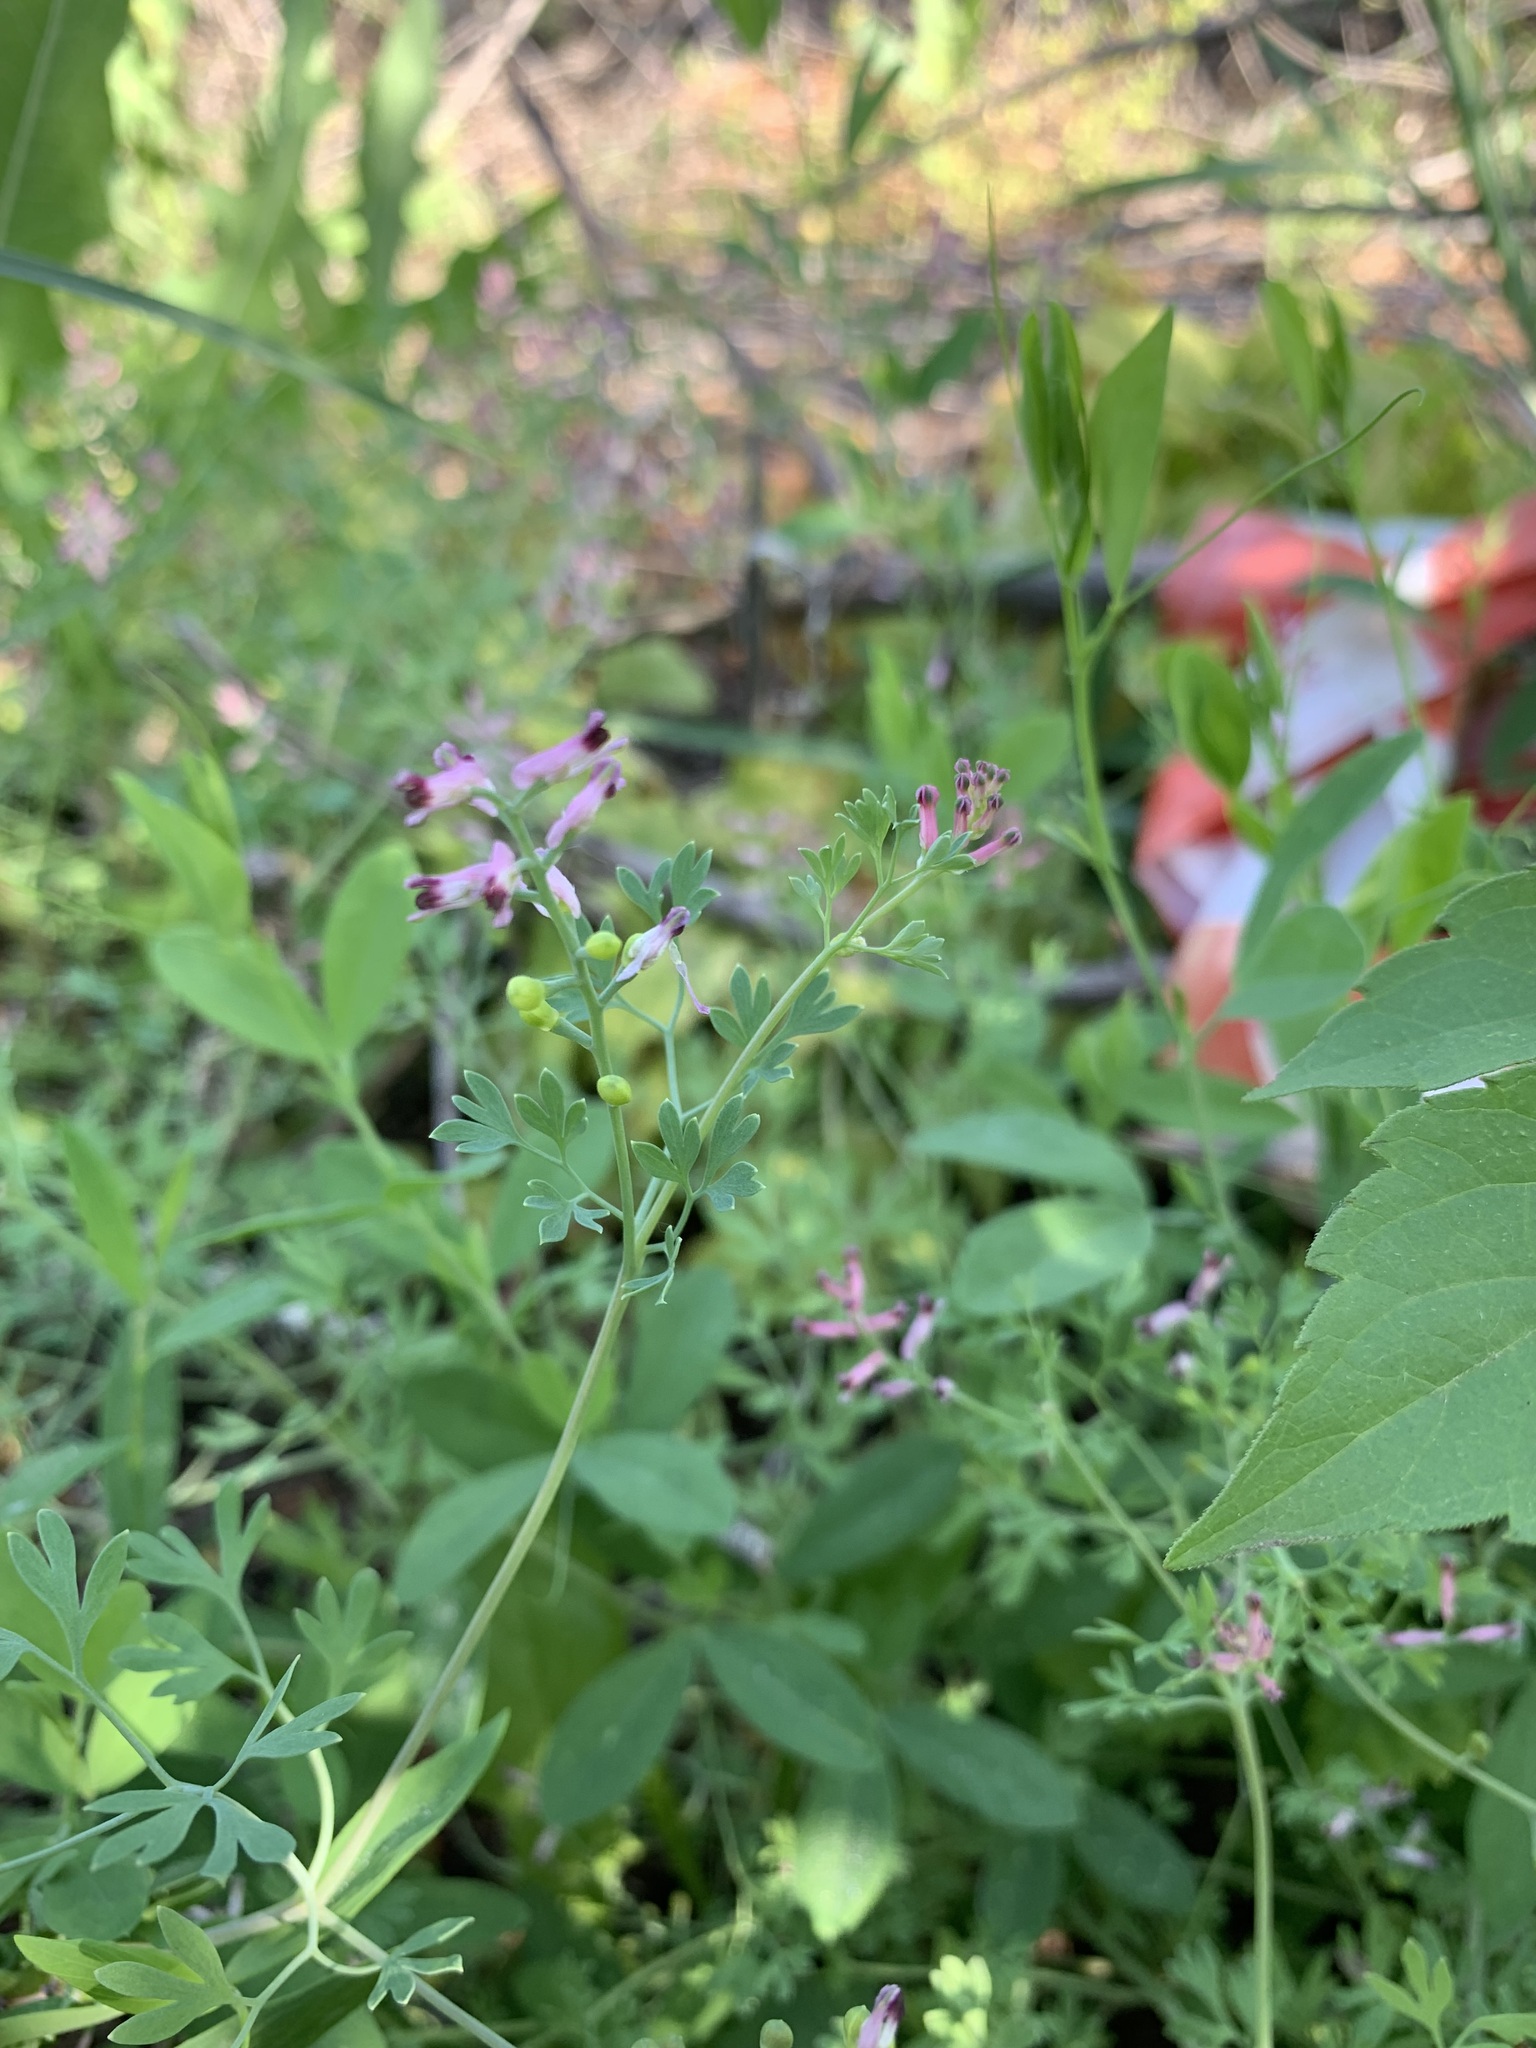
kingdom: Plantae
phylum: Tracheophyta
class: Magnoliopsida
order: Ranunculales
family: Papaveraceae
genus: Fumaria
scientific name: Fumaria schleicheri
